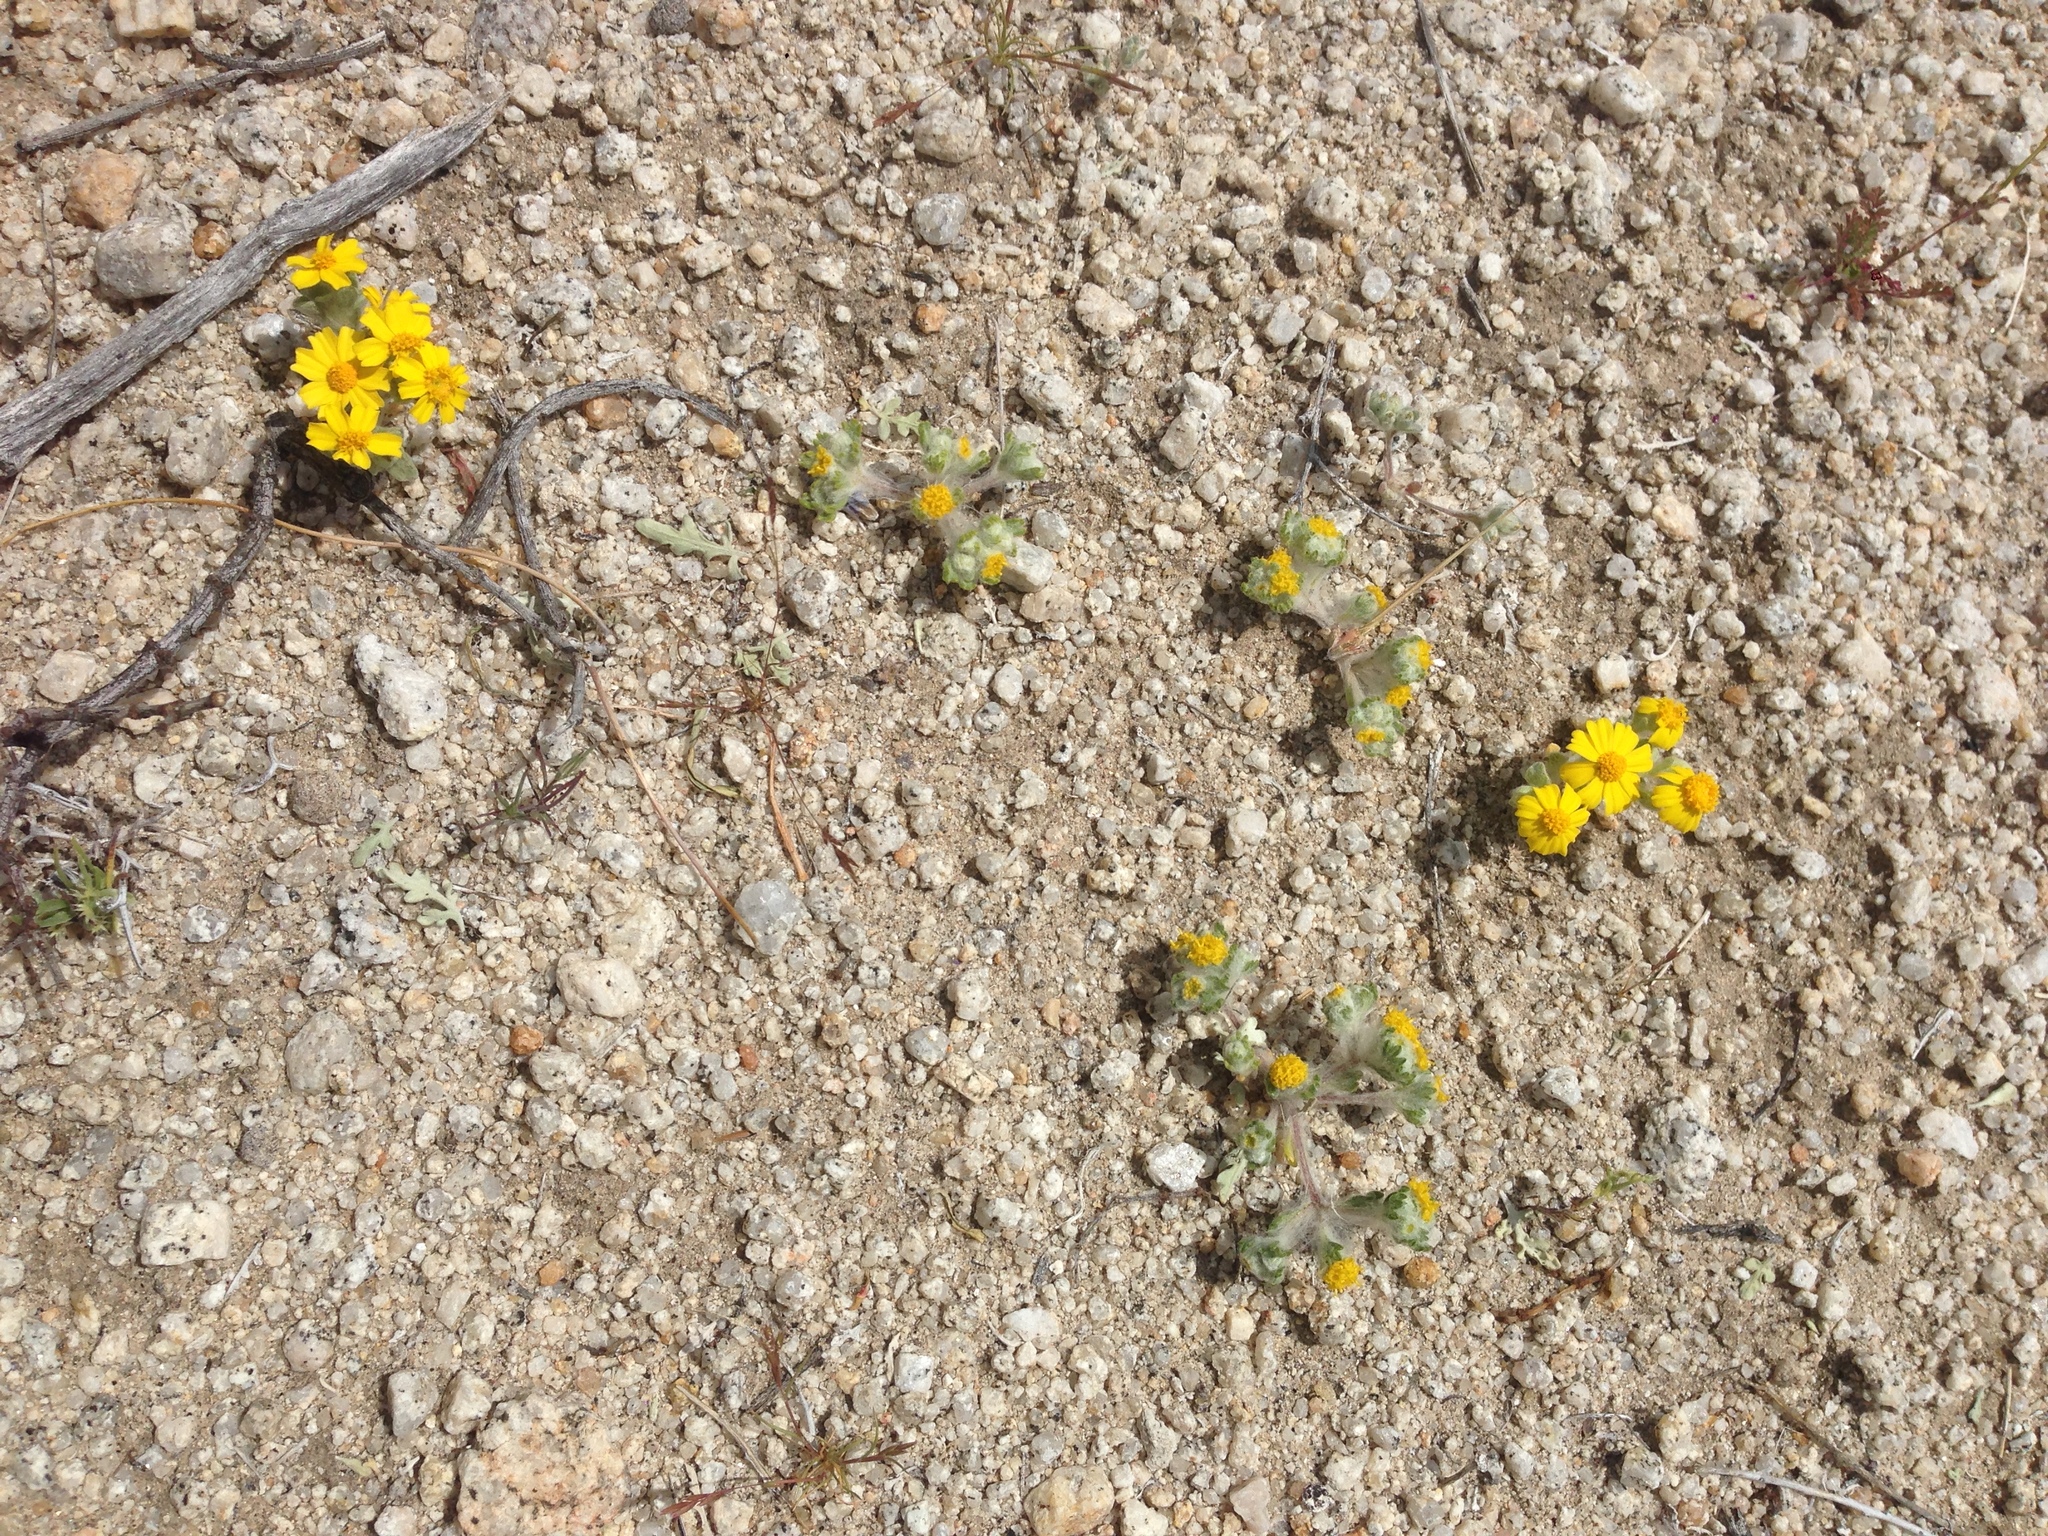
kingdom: Plantae
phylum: Tracheophyta
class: Magnoliopsida
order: Asterales
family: Asteraceae
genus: Eriophyllum
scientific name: Eriophyllum pringlei
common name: Pringle's woolly-sunflower
